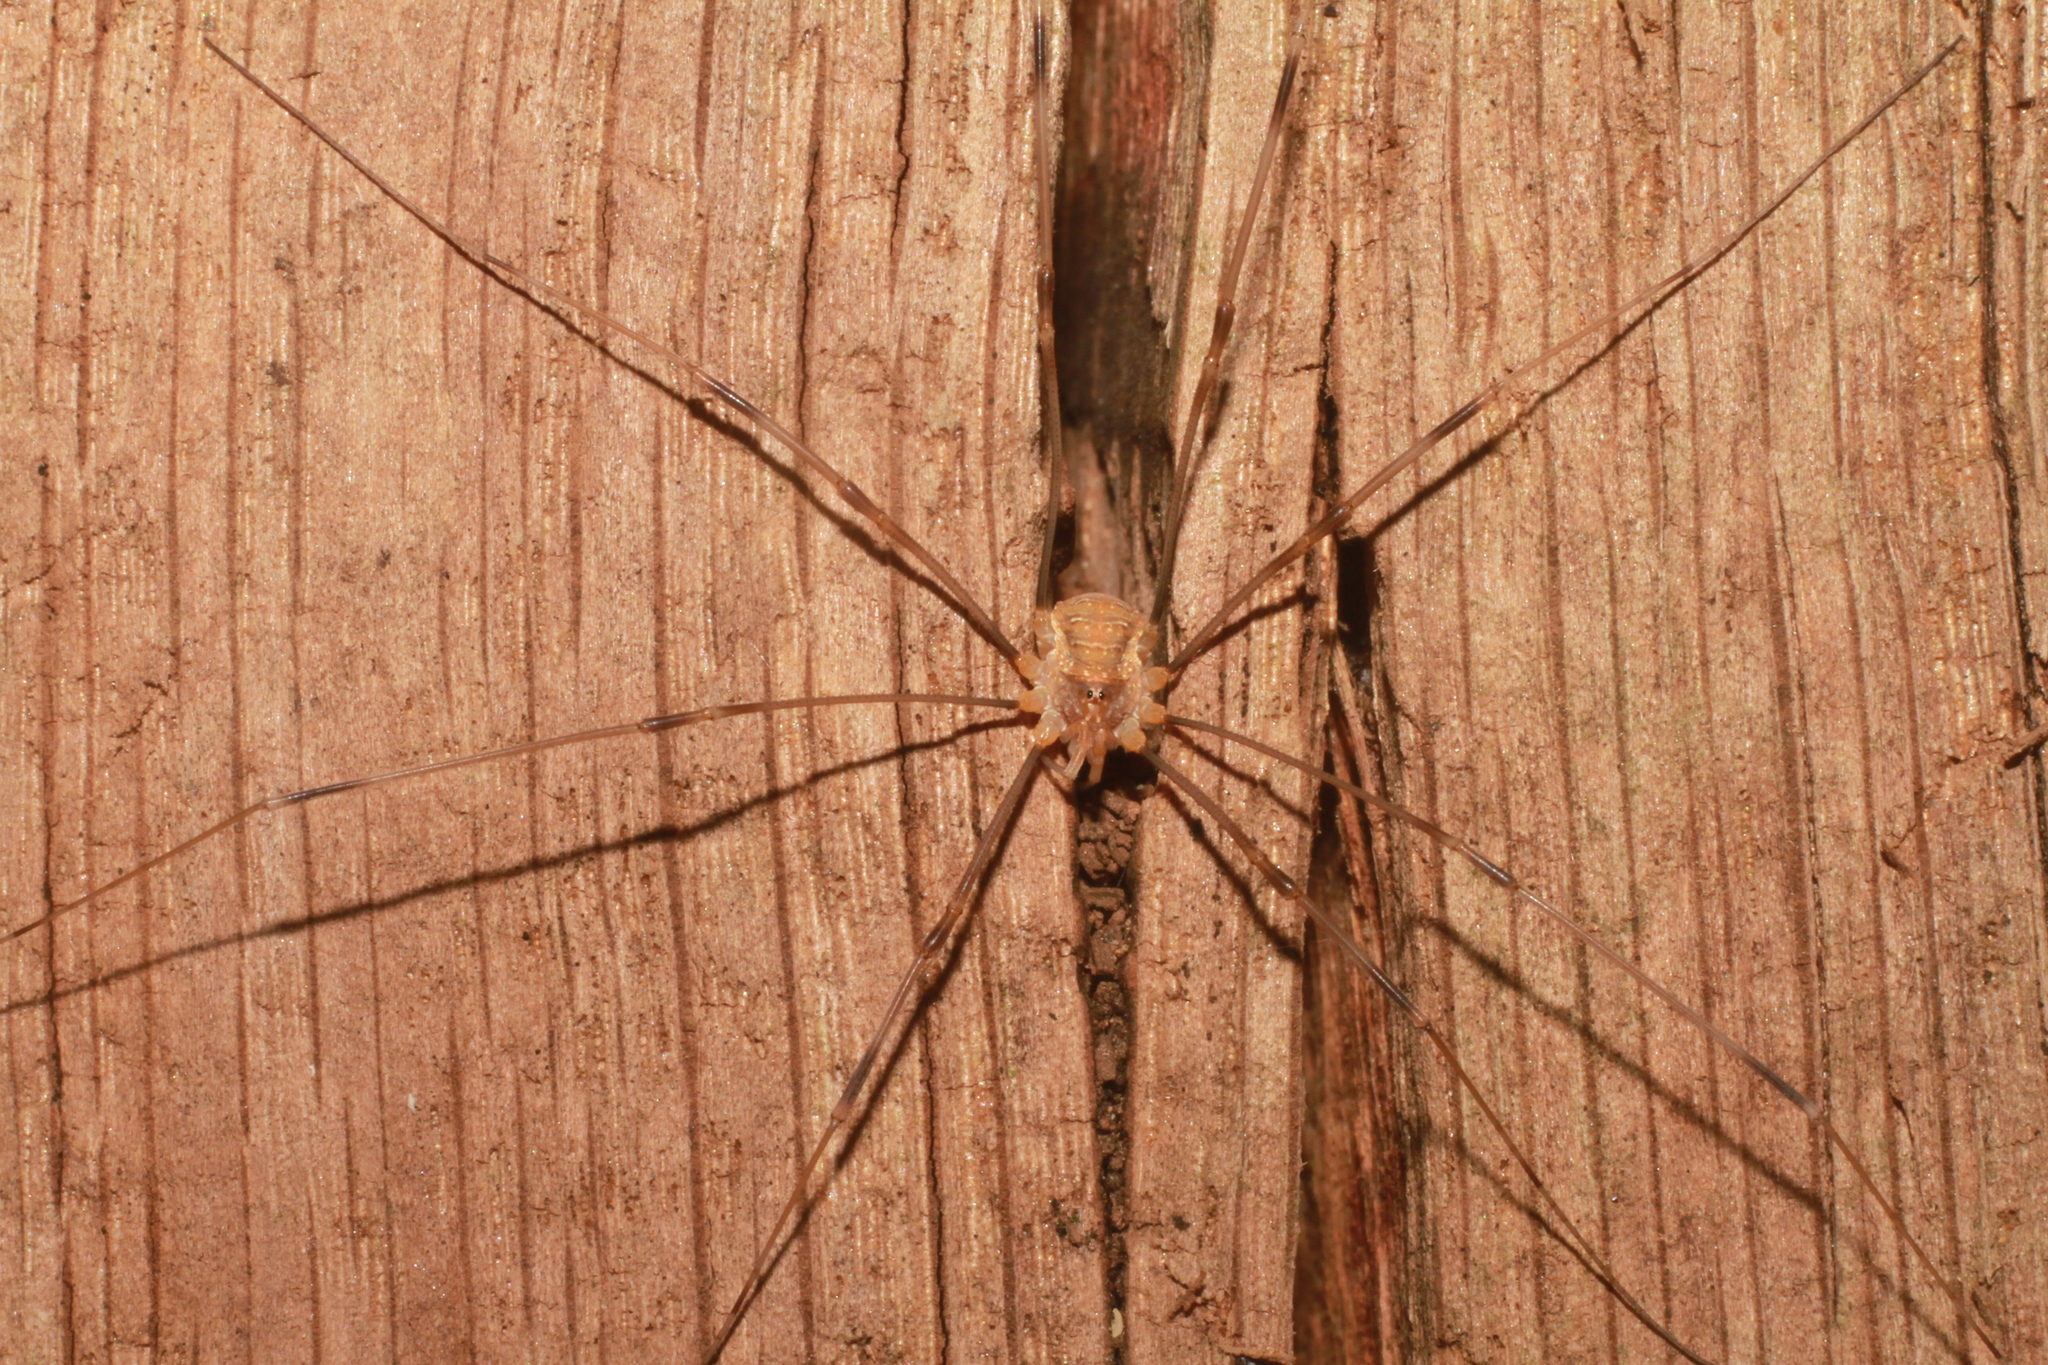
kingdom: Animalia
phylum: Arthropoda
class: Arachnida
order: Opiliones
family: Phalangiidae
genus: Opilio
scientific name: Opilio canestrinii
